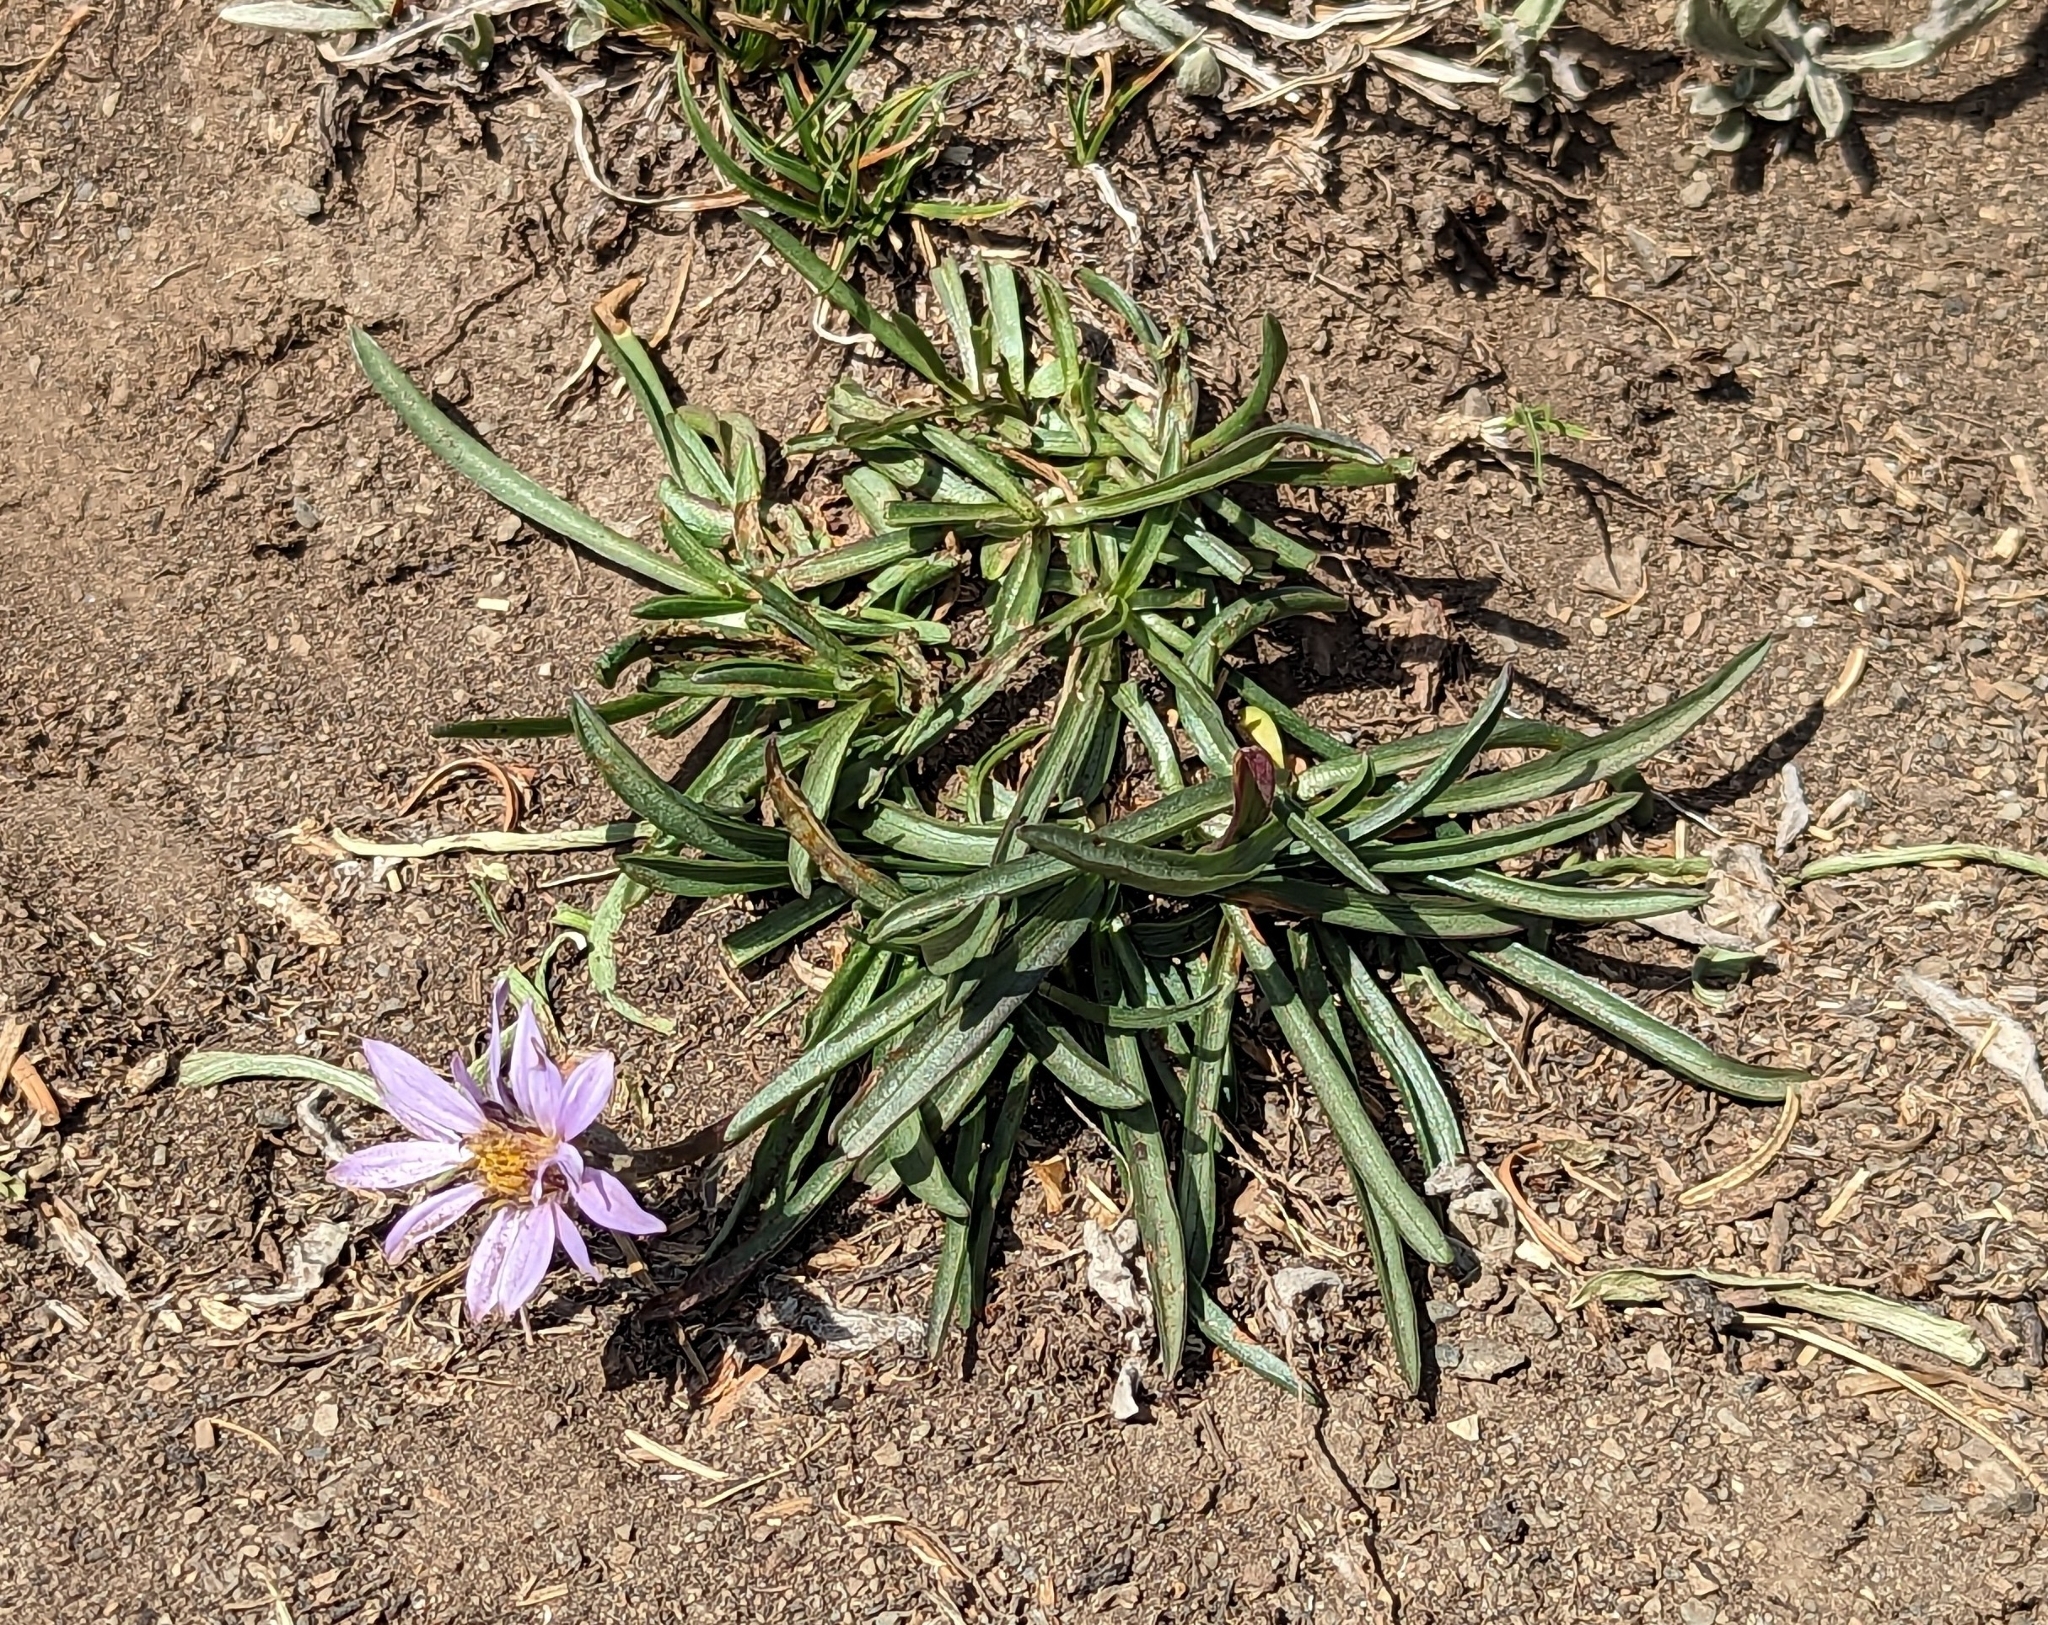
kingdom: Plantae
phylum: Tracheophyta
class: Magnoliopsida
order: Asterales
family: Asteraceae
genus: Oreostemma
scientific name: Oreostemma alpigenum
